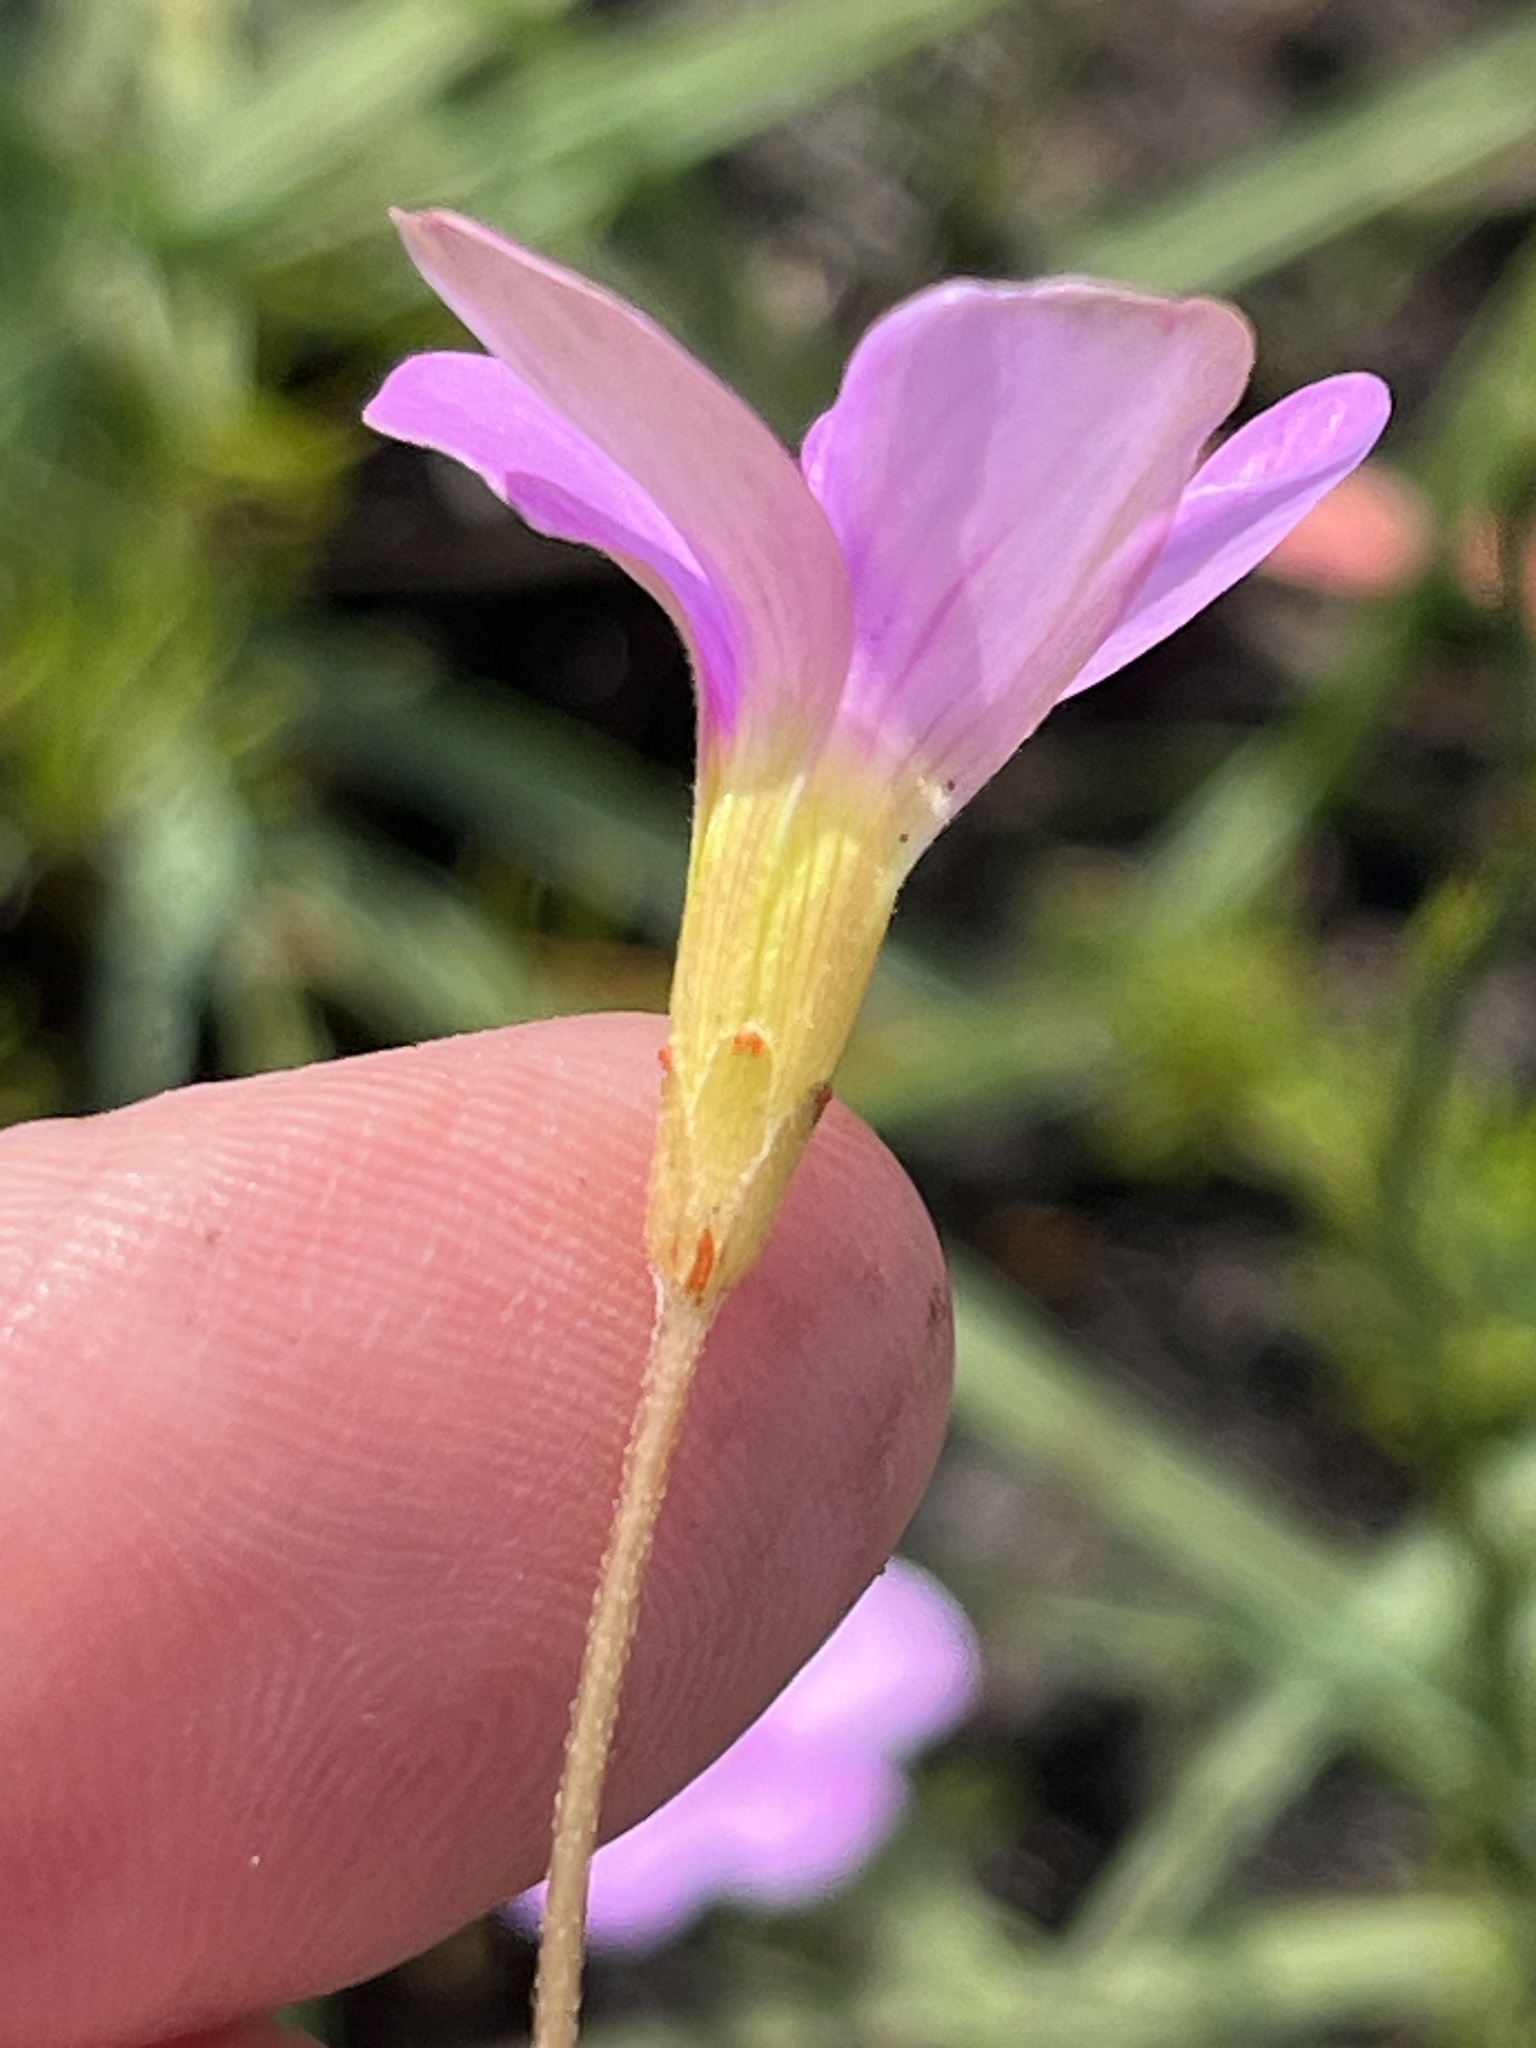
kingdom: Plantae
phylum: Tracheophyta
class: Magnoliopsida
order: Oxalidales
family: Oxalidaceae
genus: Oxalis
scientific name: Oxalis polyphylla
